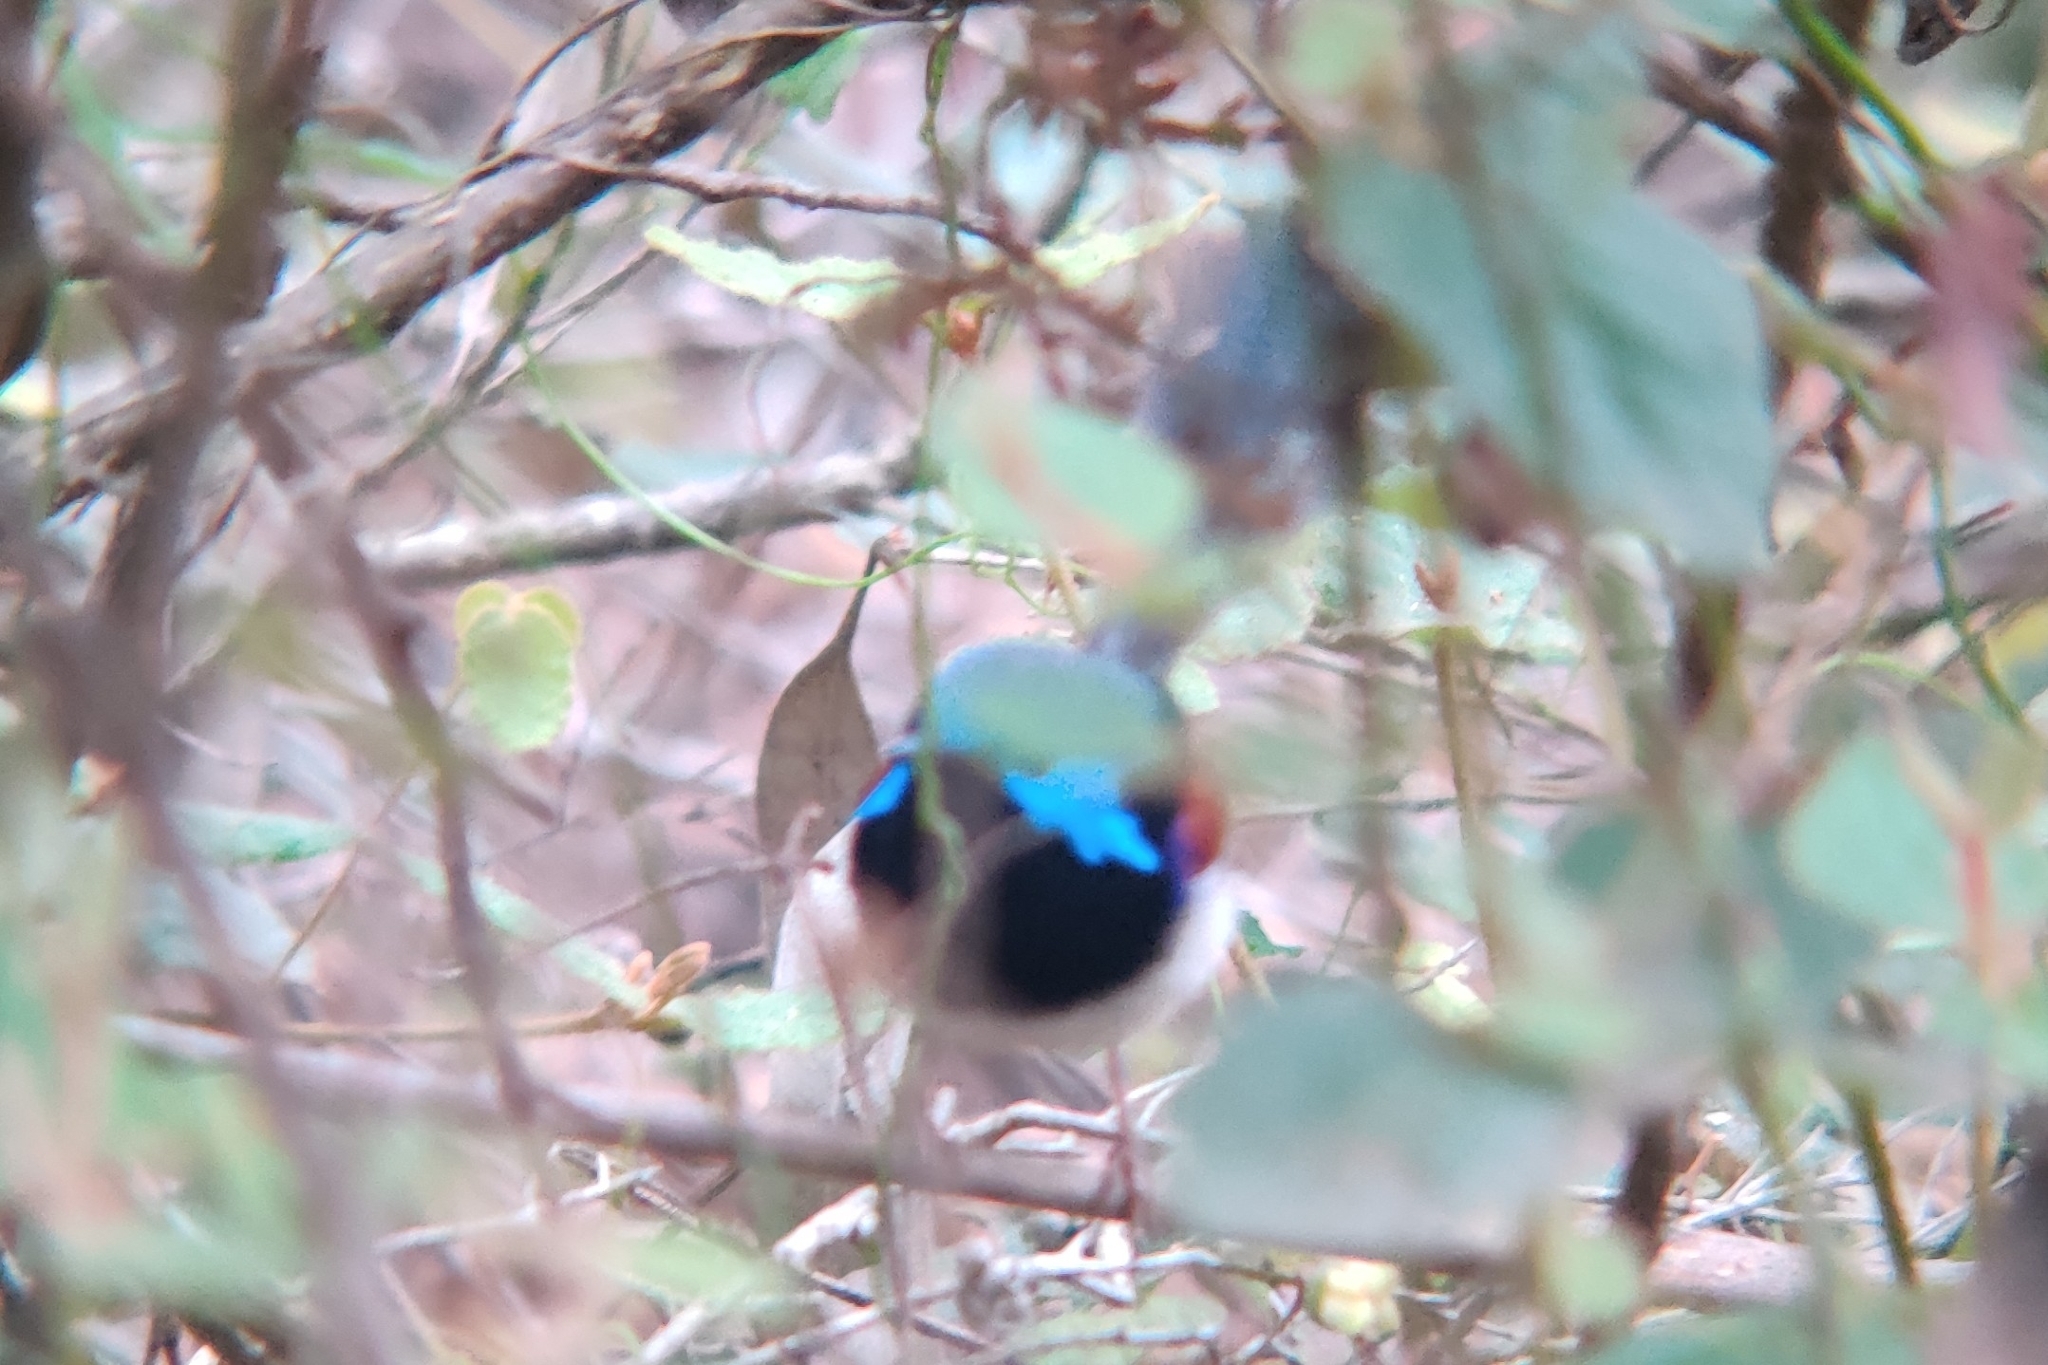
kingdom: Animalia
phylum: Chordata
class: Aves
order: Passeriformes
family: Maluridae
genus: Malurus
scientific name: Malurus lamberti
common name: Variegated fairywren
